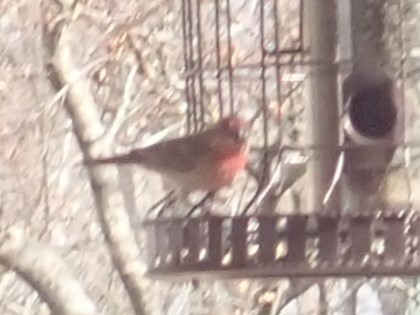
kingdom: Animalia
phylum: Chordata
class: Aves
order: Passeriformes
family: Fringillidae
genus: Haemorhous
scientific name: Haemorhous mexicanus
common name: House finch
